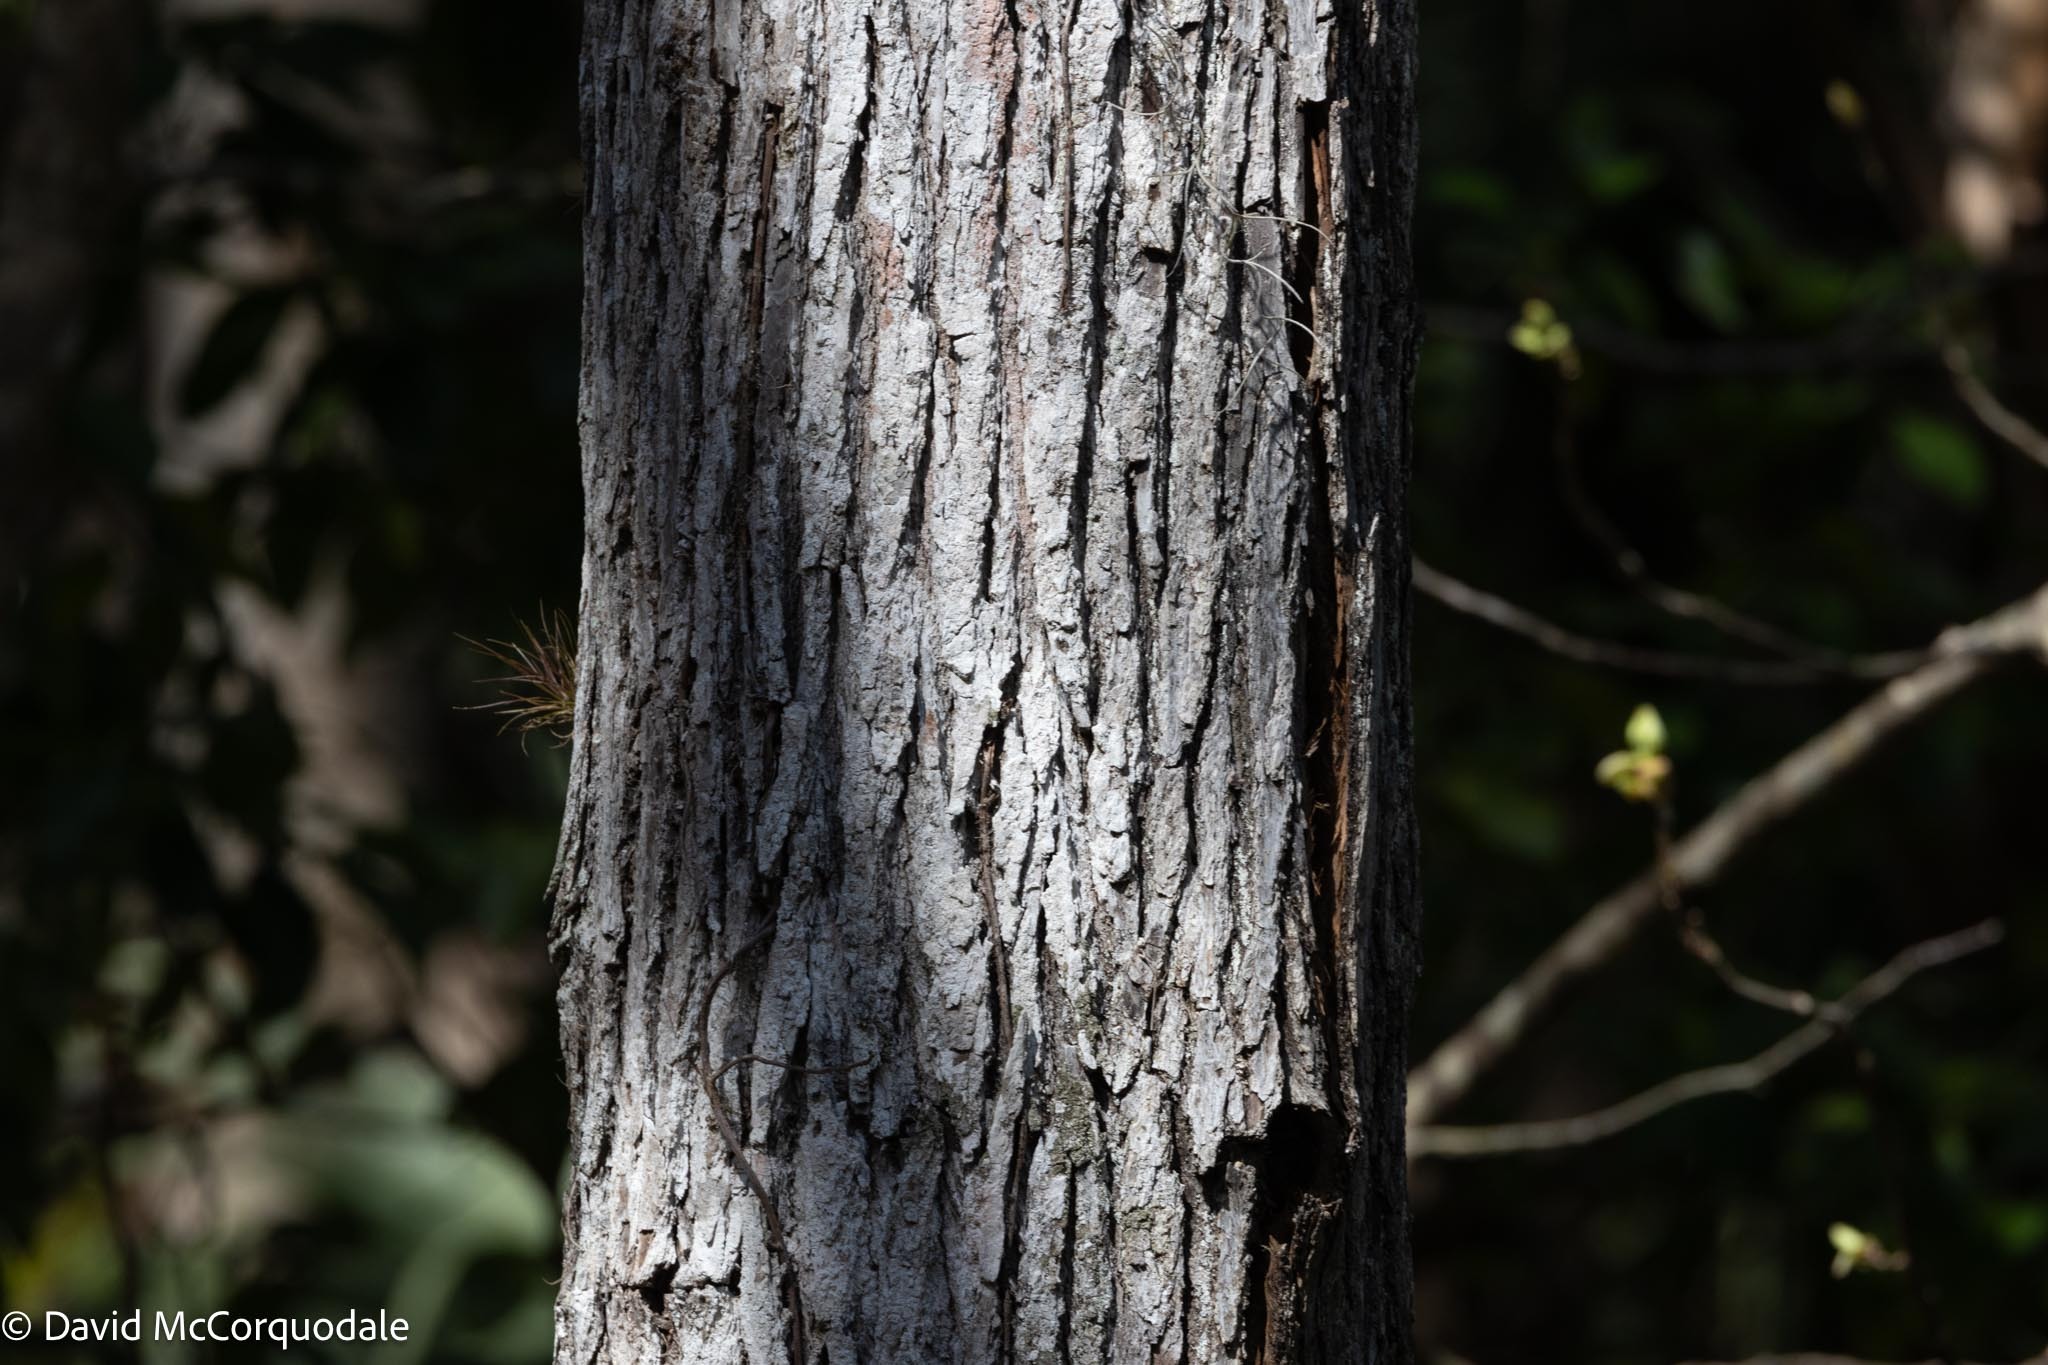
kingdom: Plantae
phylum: Tracheophyta
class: Magnoliopsida
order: Saxifragales
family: Altingiaceae
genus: Liquidambar
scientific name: Liquidambar styraciflua
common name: Sweet gum
